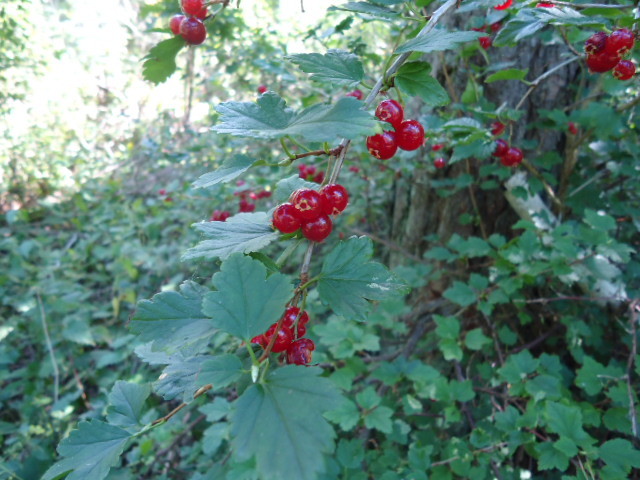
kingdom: Plantae
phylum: Tracheophyta
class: Magnoliopsida
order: Saxifragales
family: Grossulariaceae
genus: Ribes
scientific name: Ribes alpinum
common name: Alpine currant
